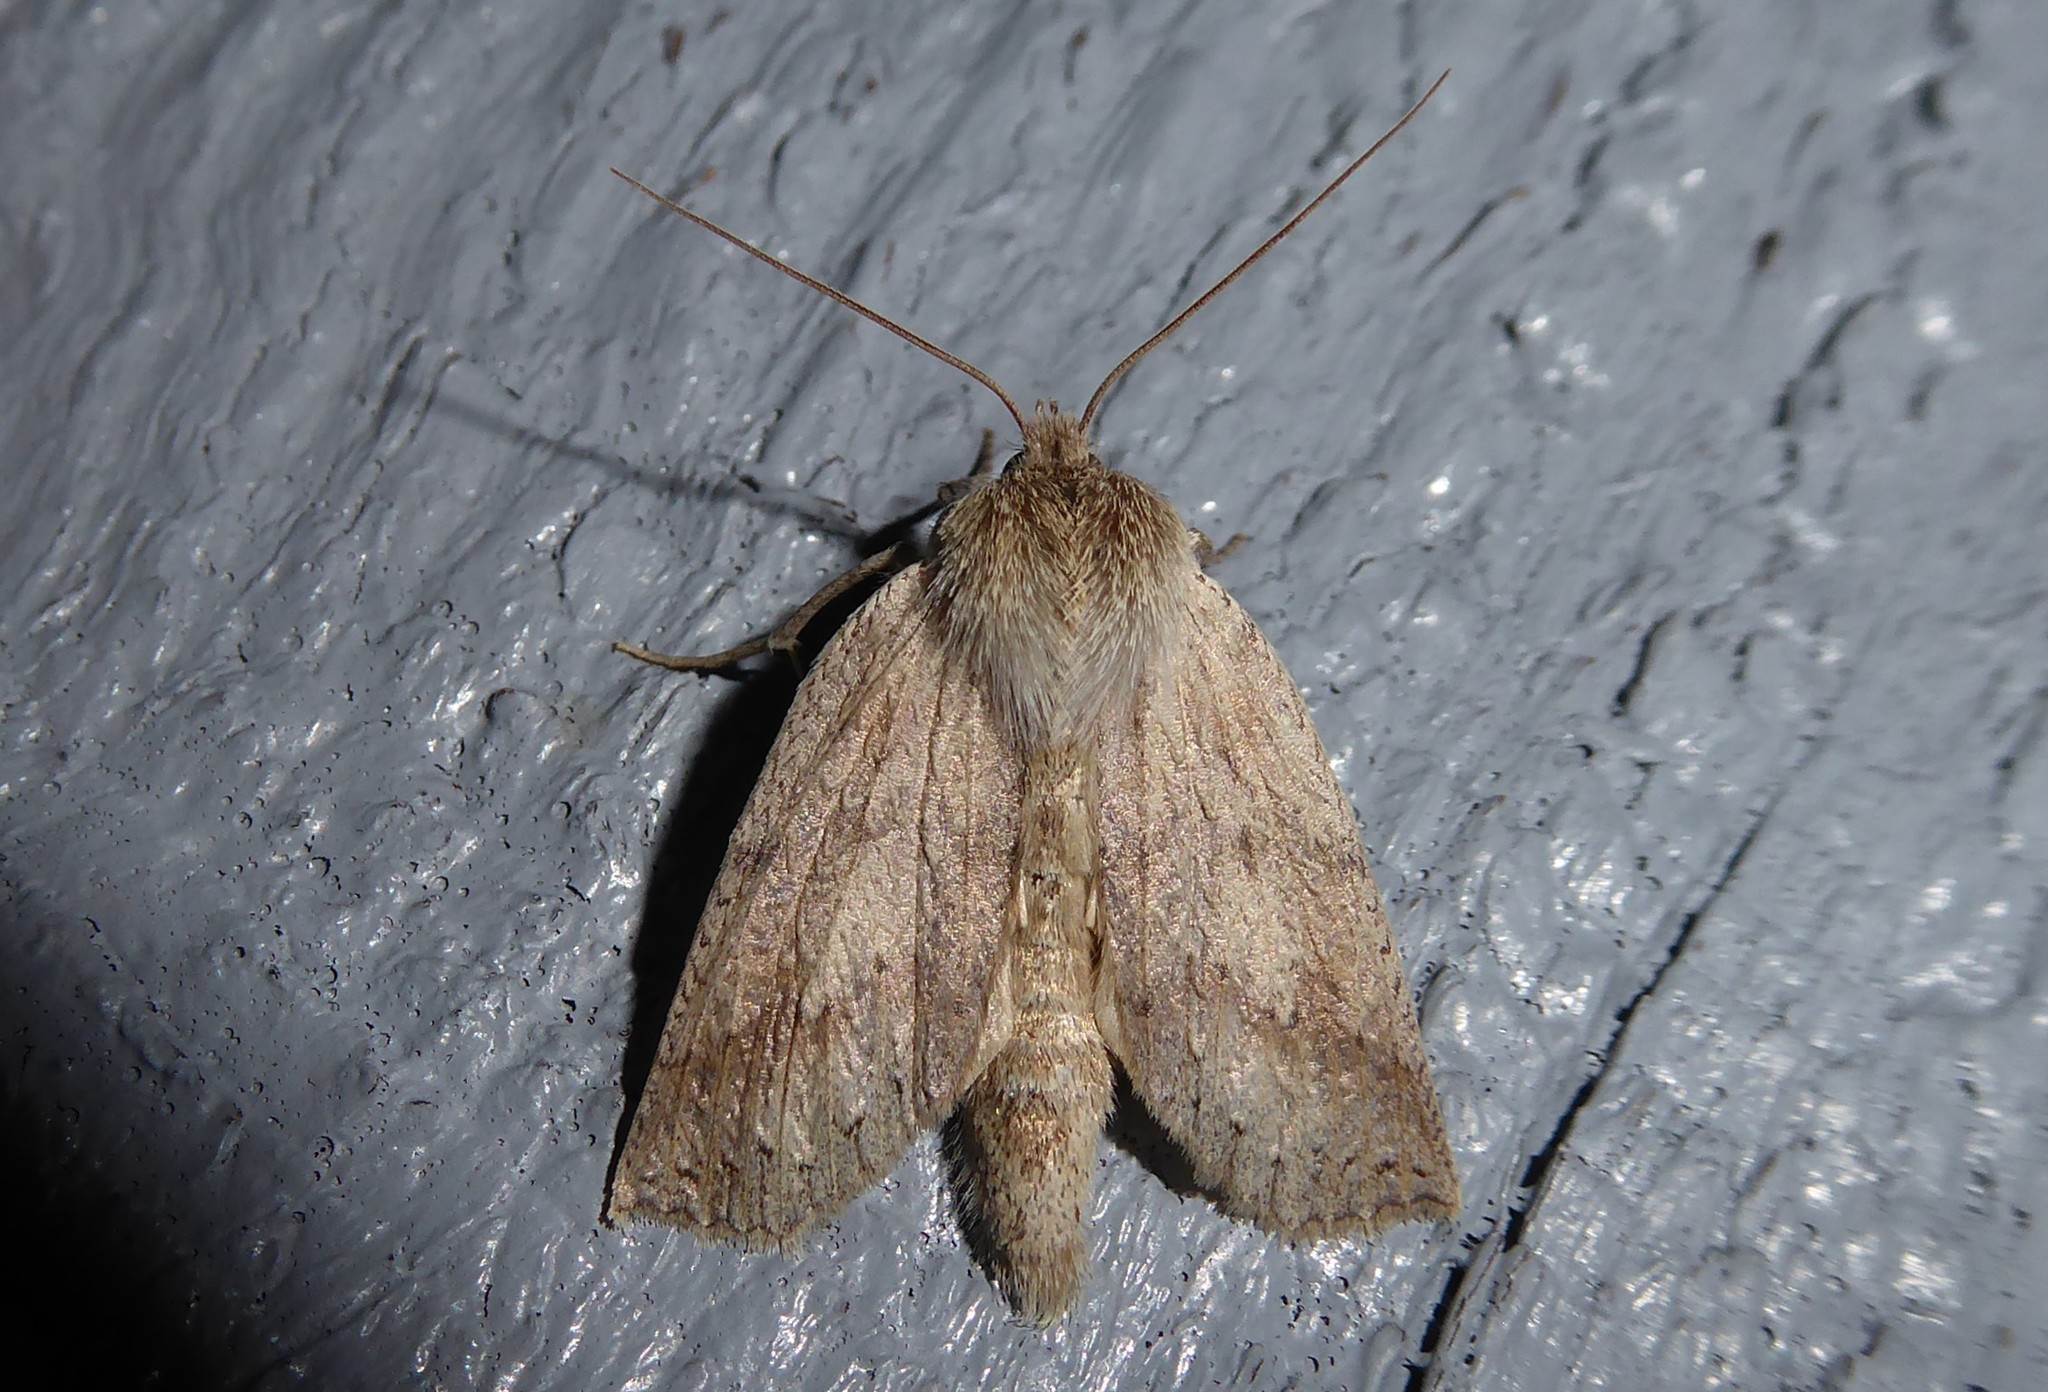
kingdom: Animalia
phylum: Arthropoda
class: Insecta
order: Lepidoptera
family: Geometridae
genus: Declana
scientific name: Declana leptomera
